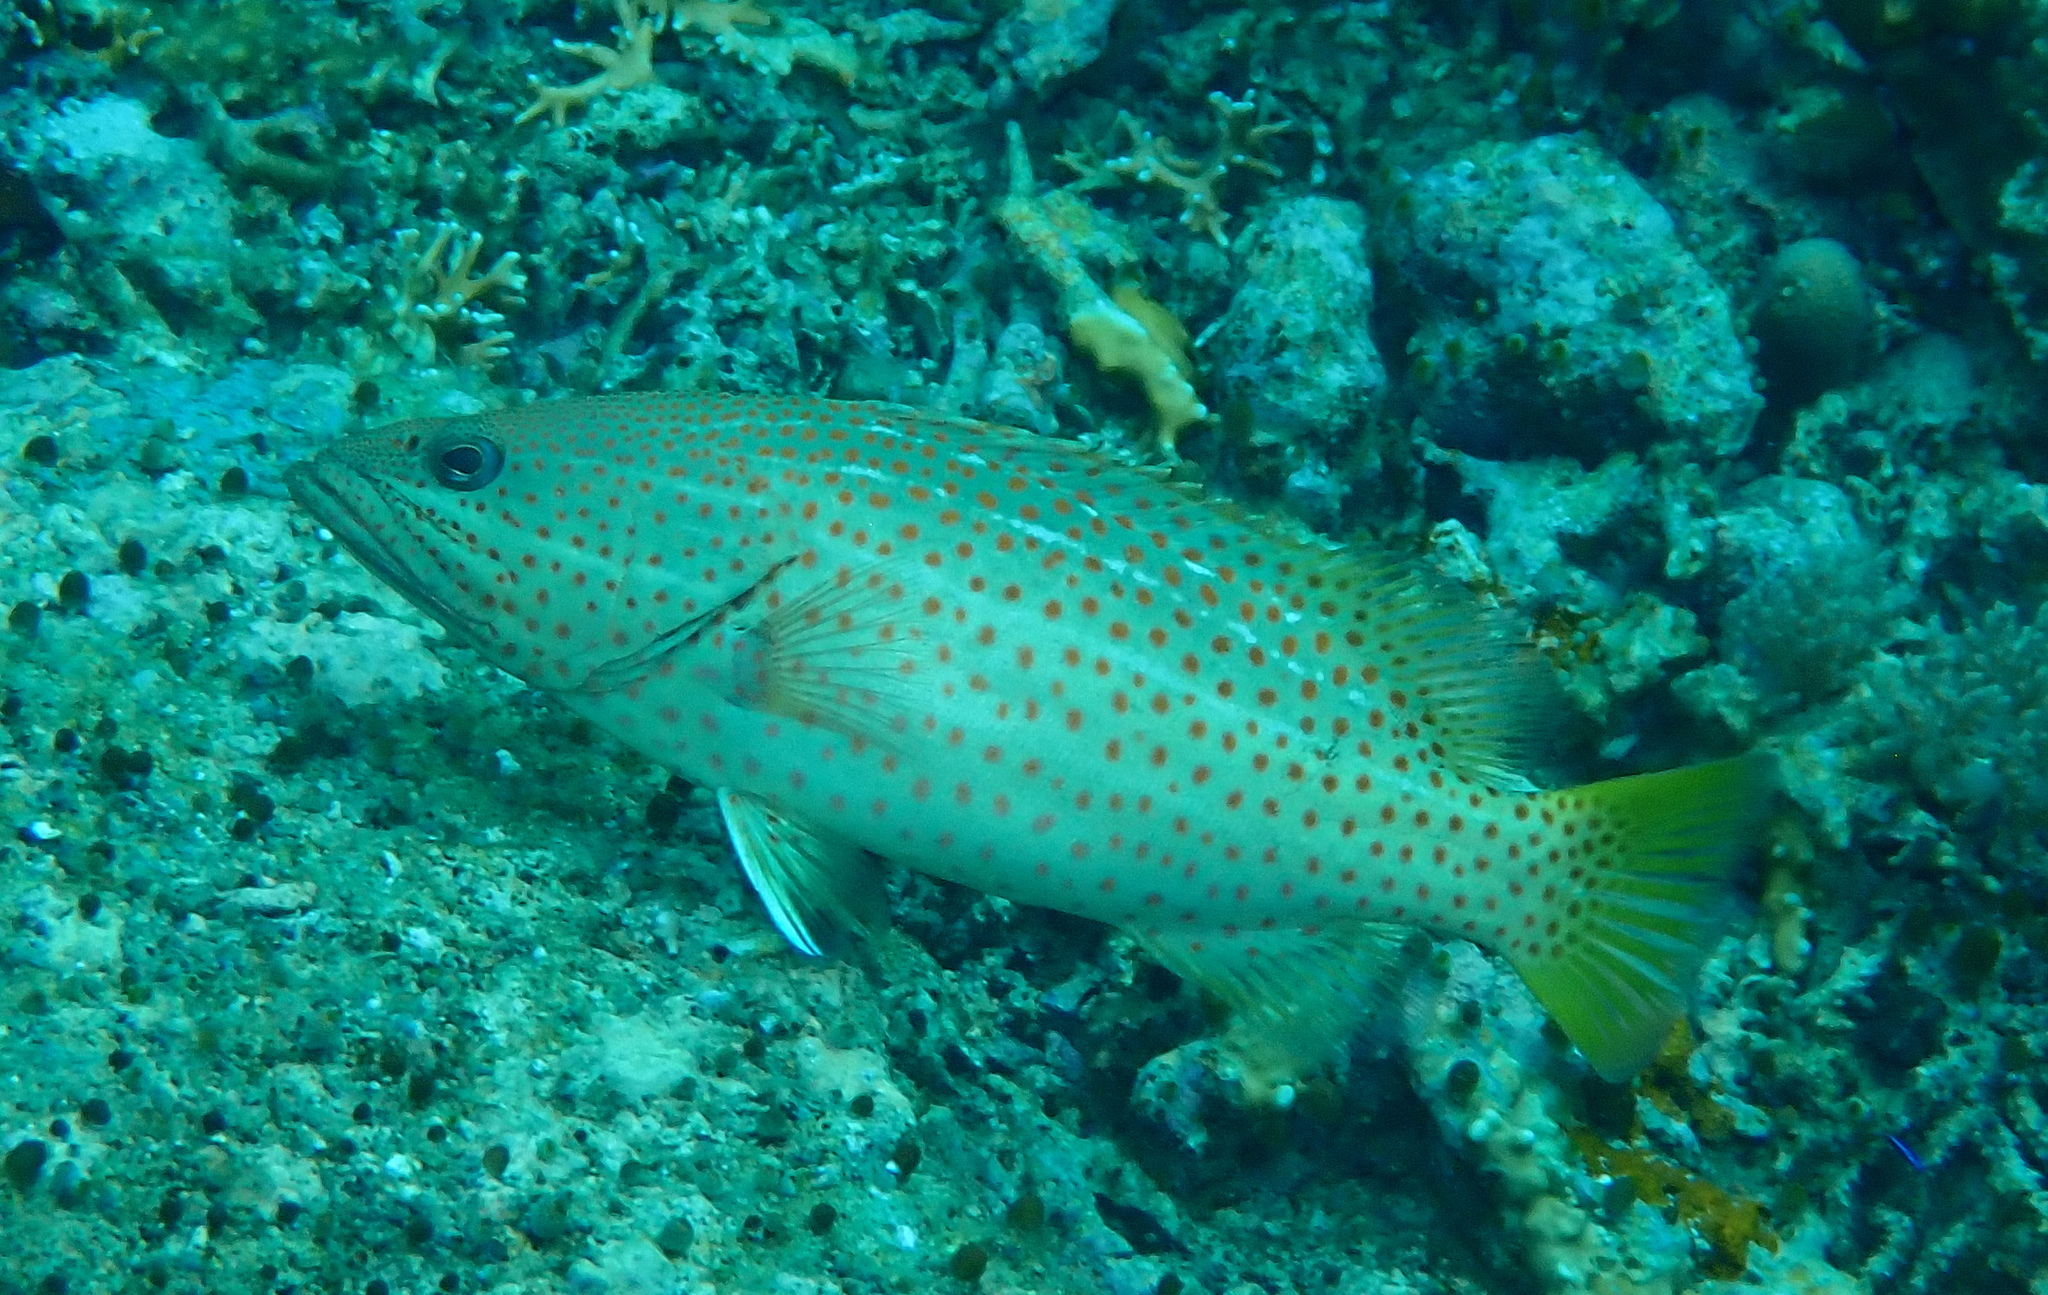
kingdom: Animalia
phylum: Chordata
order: Perciformes
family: Serranidae
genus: Anyperodon
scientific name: Anyperodon leucogrammicus
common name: Slender grouper
